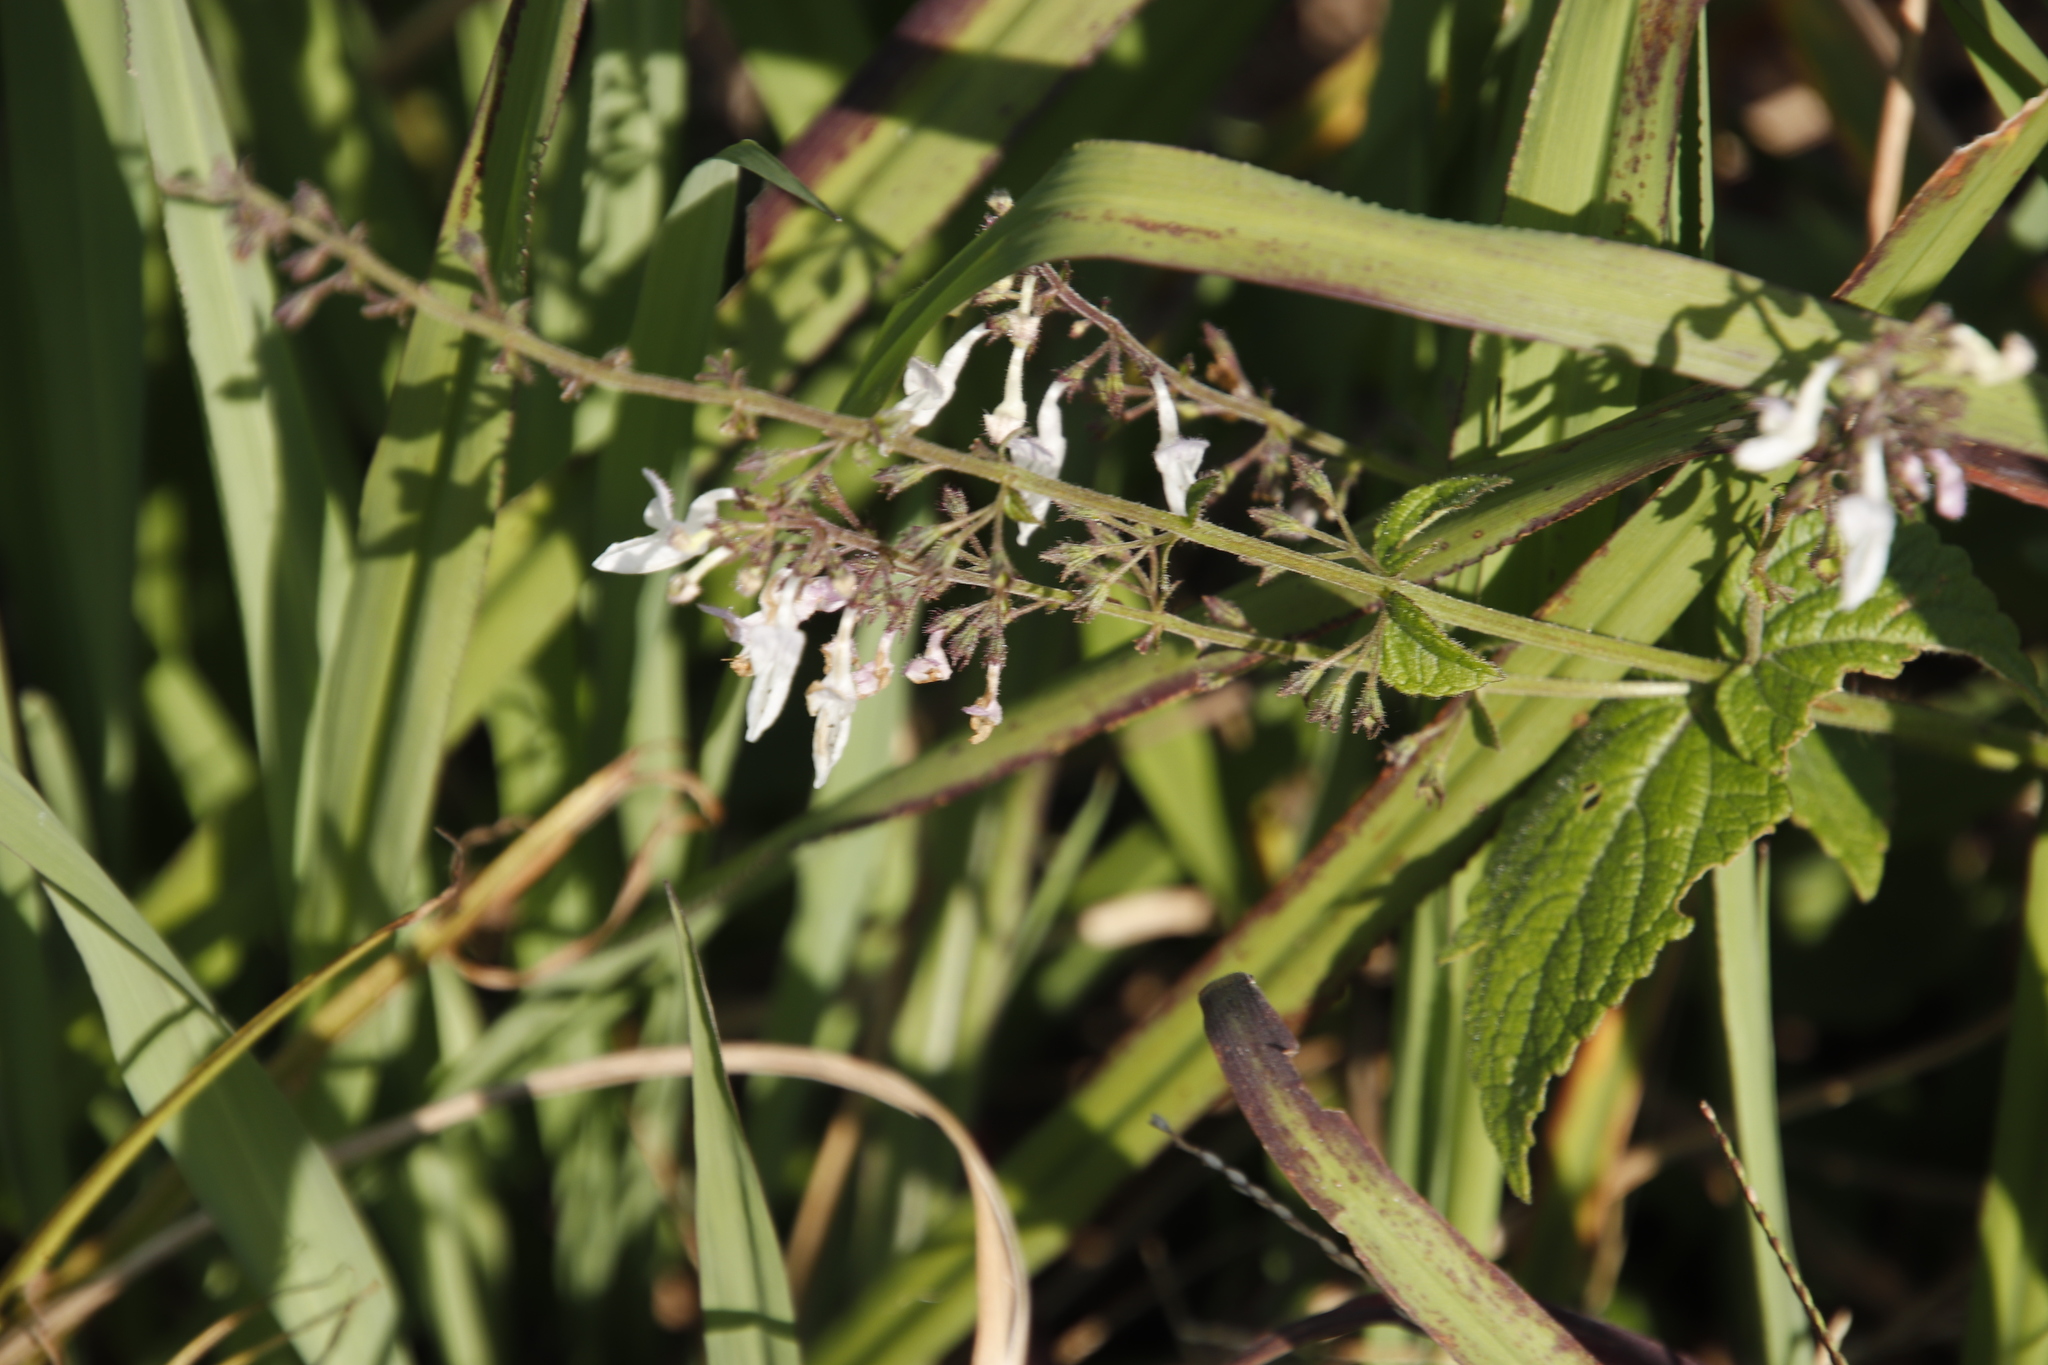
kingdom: Plantae
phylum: Tracheophyta
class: Magnoliopsida
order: Lamiales
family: Lamiaceae
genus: Equilabium
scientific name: Equilabium laxiflorum
